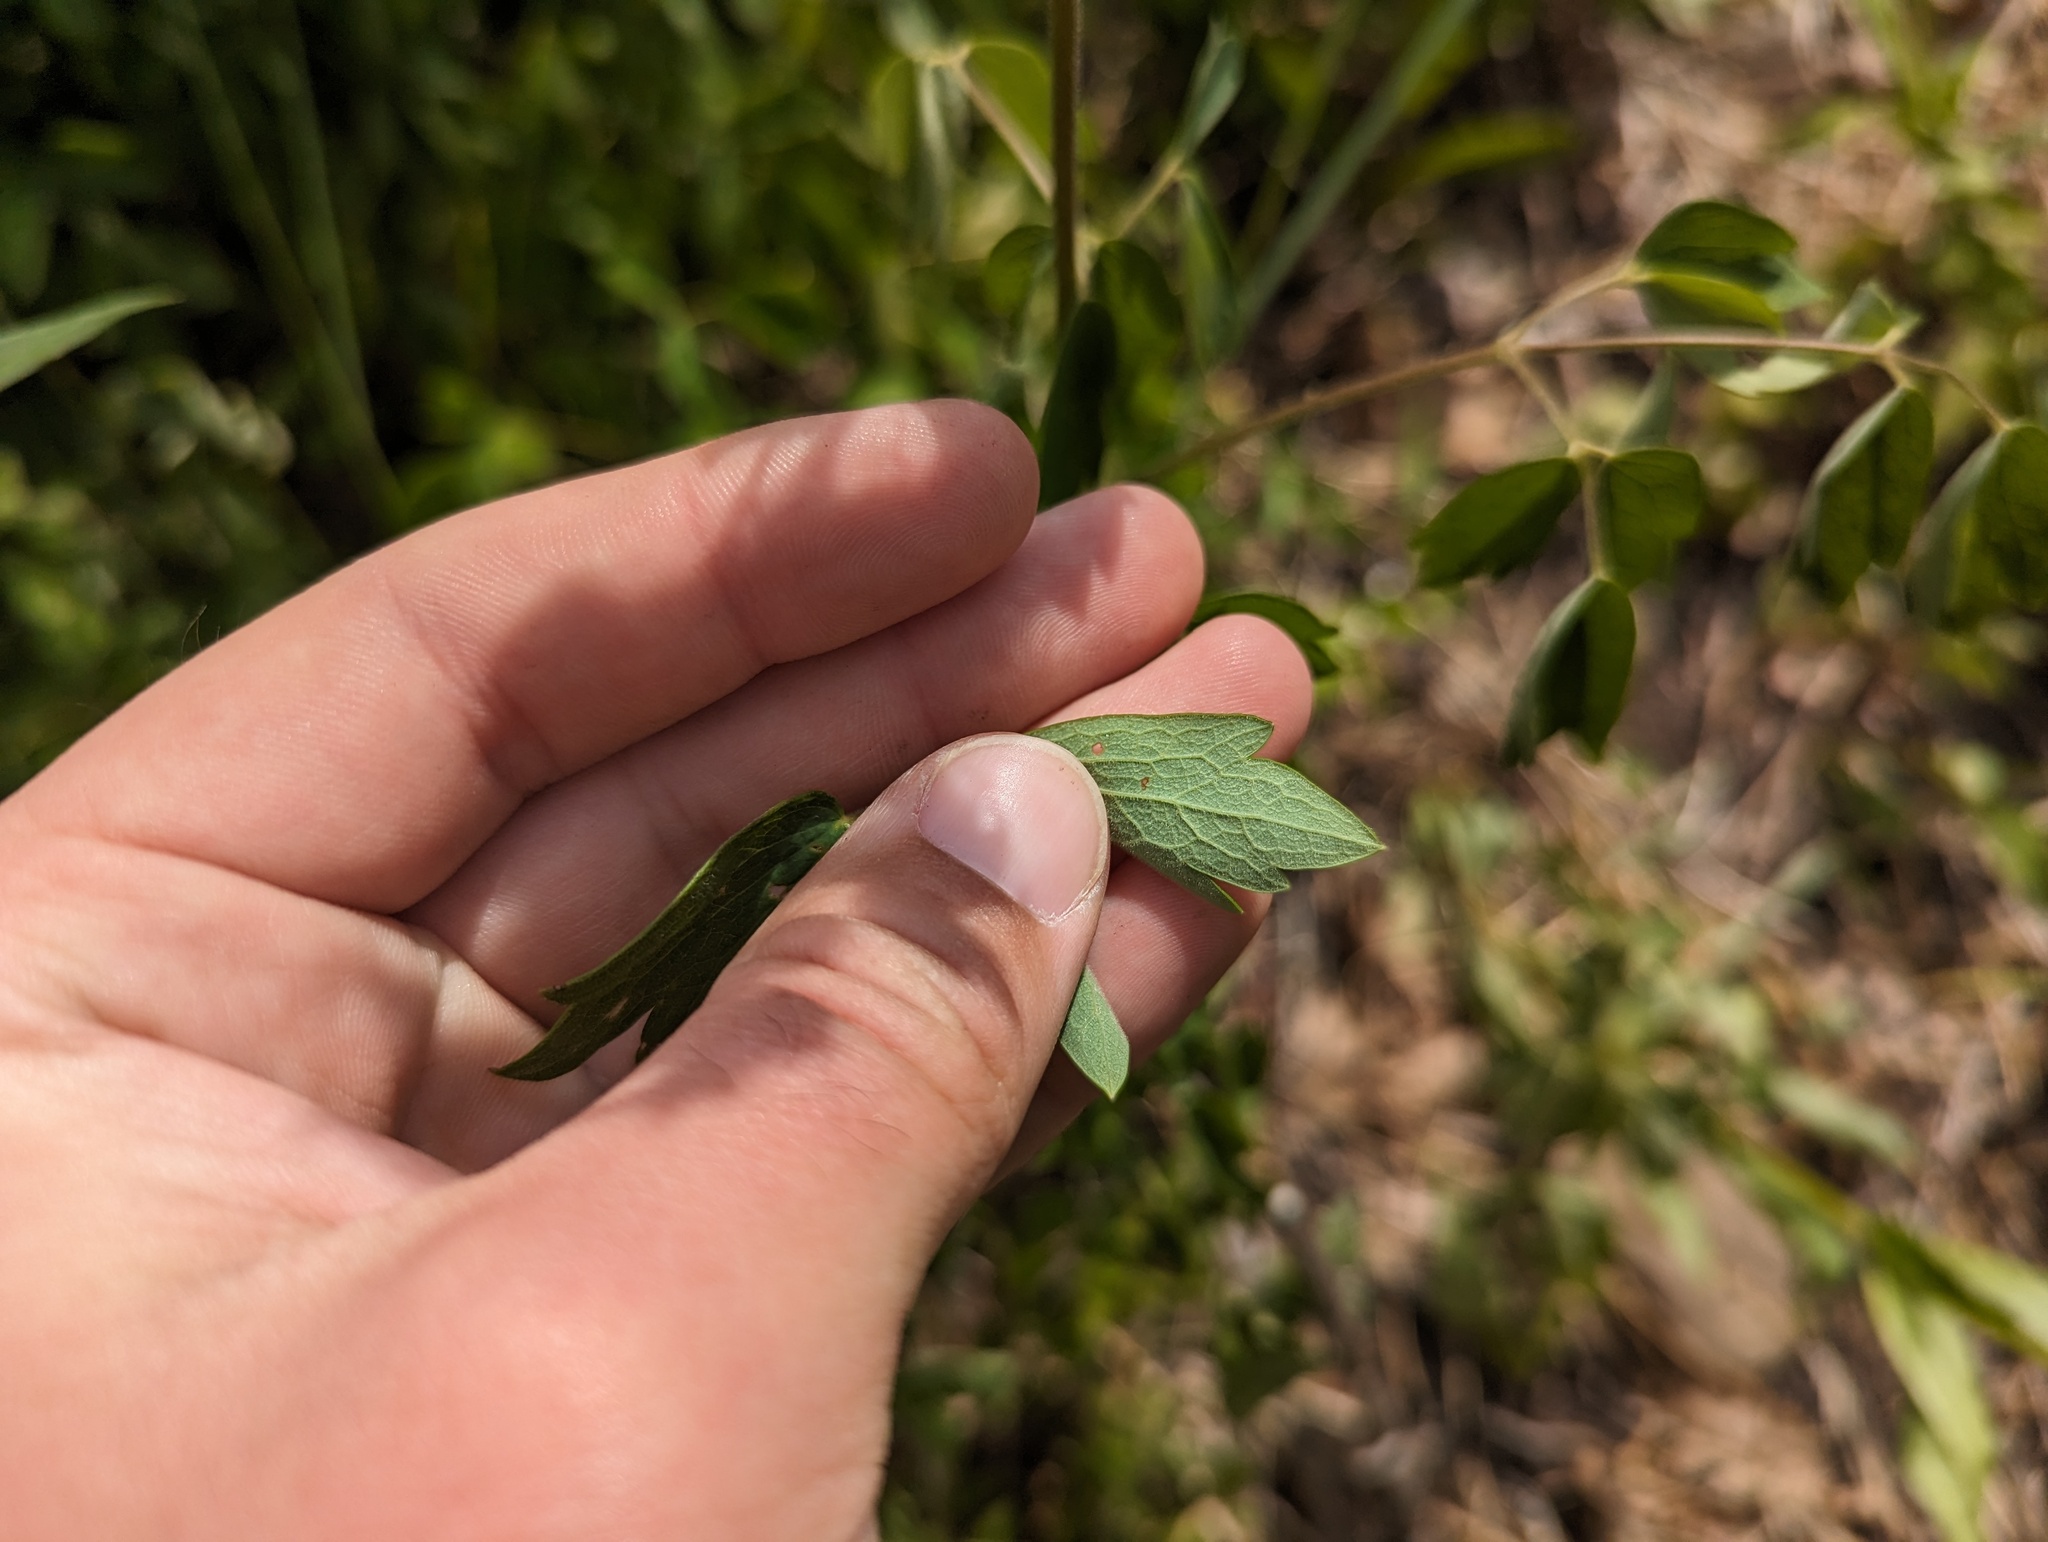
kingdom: Plantae
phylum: Tracheophyta
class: Magnoliopsida
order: Ranunculales
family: Ranunculaceae
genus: Thalictrum
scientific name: Thalictrum revolutum
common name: Waxy meadow-rue
